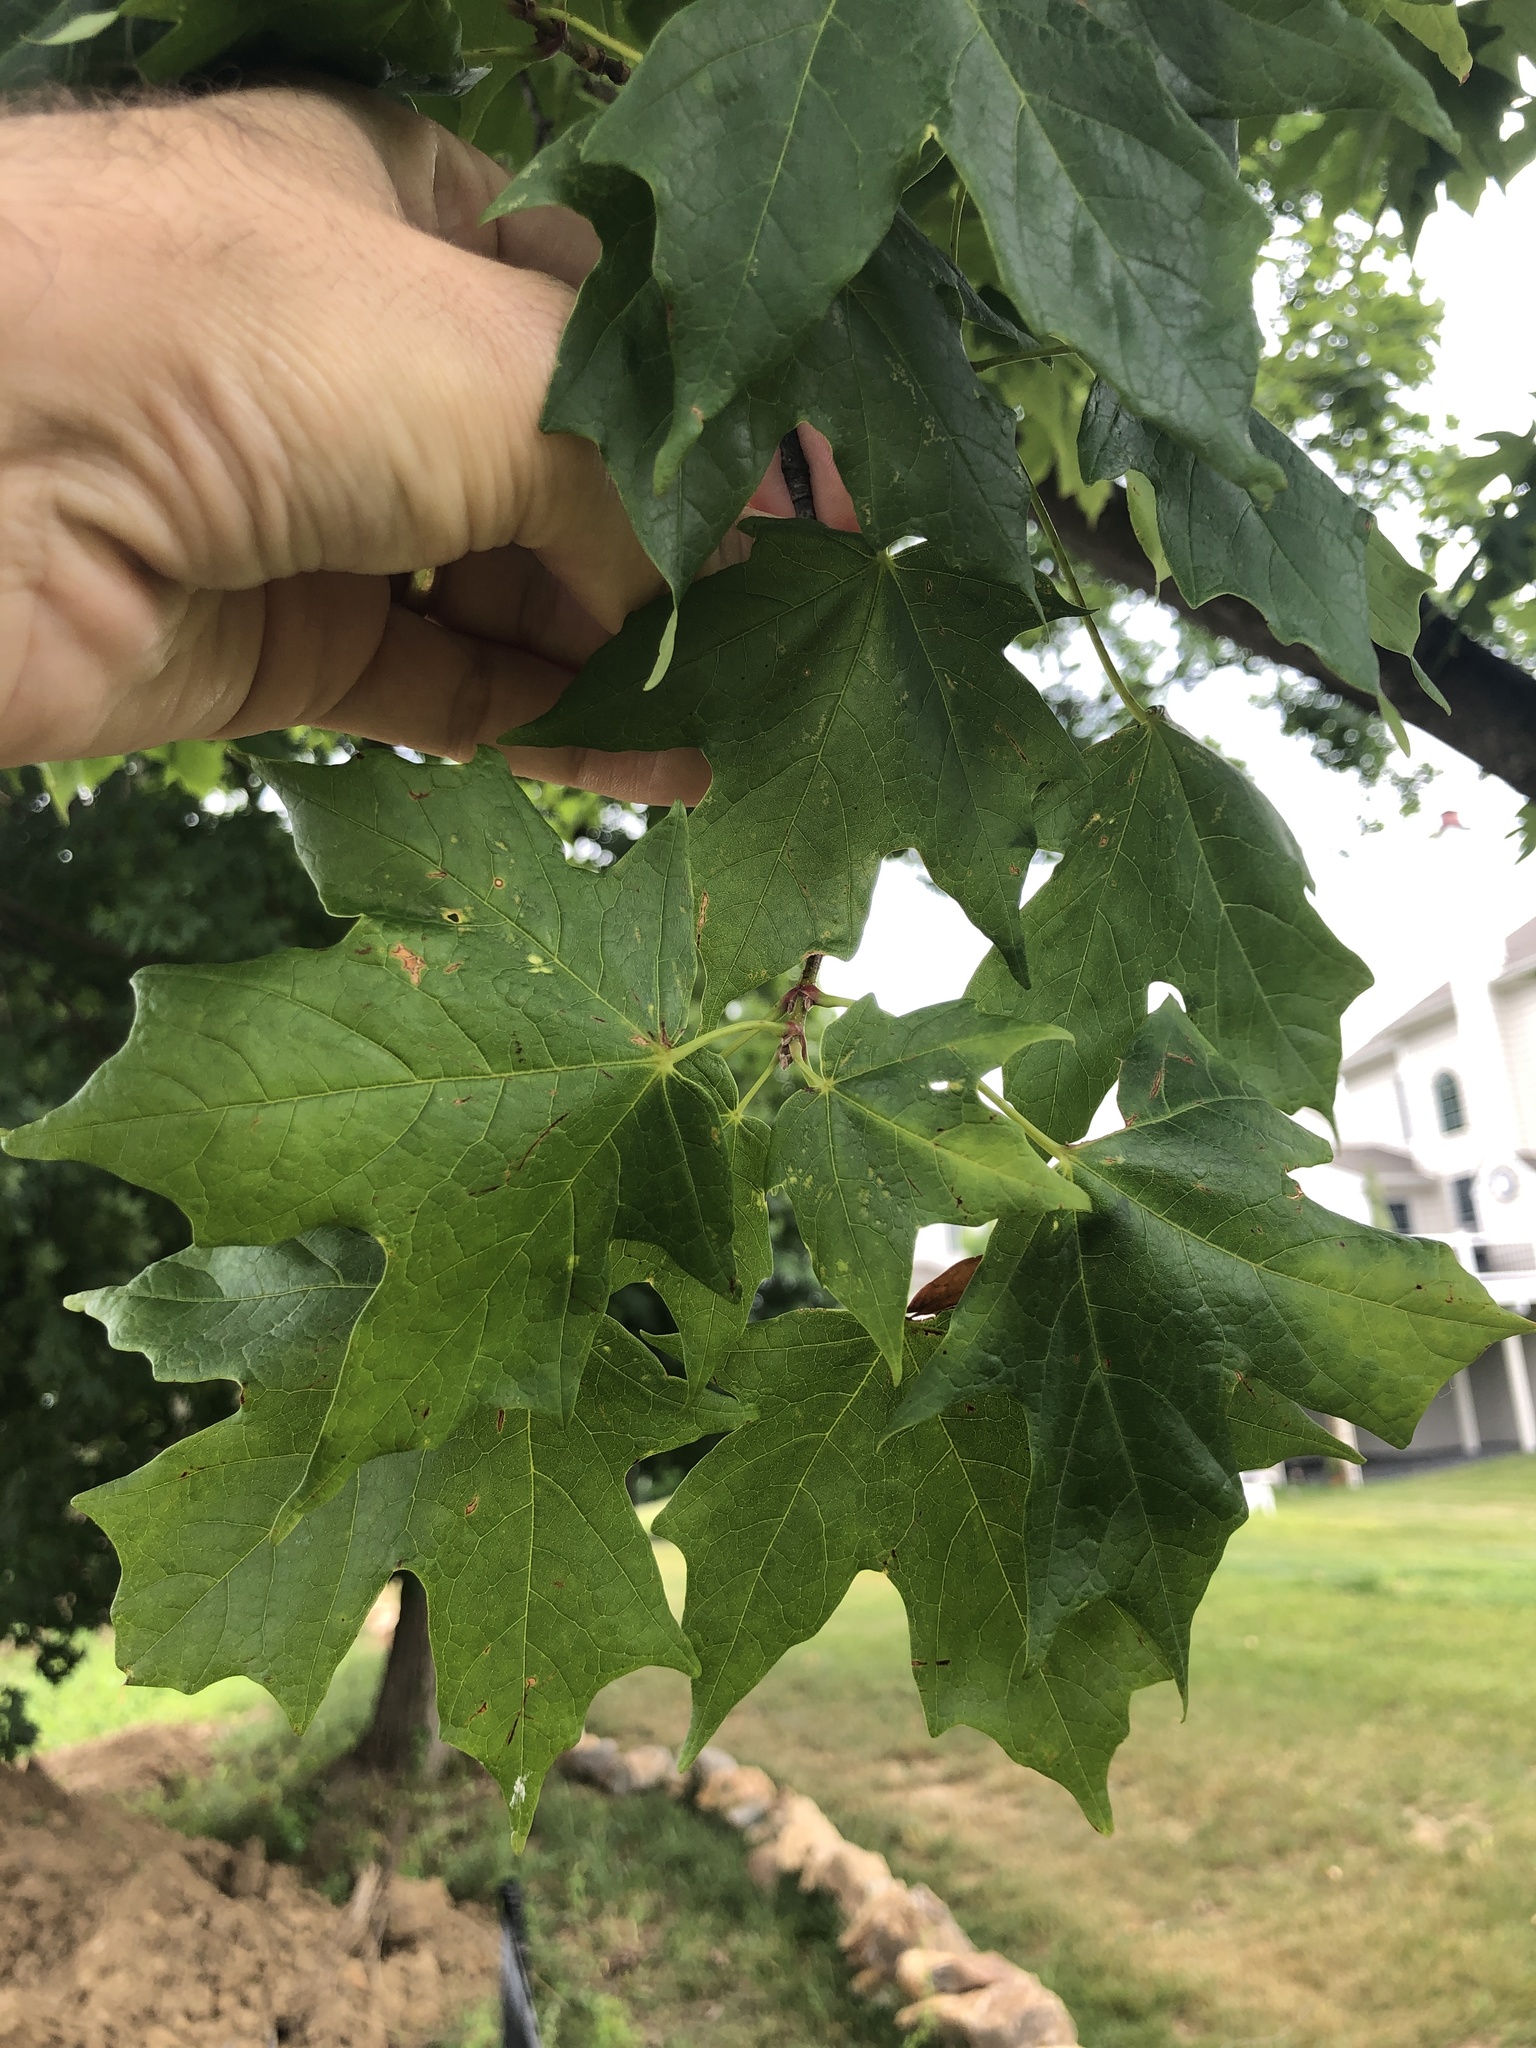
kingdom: Plantae
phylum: Tracheophyta
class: Magnoliopsida
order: Sapindales
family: Sapindaceae
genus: Acer
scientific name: Acer saccharum
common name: Sugar maple
